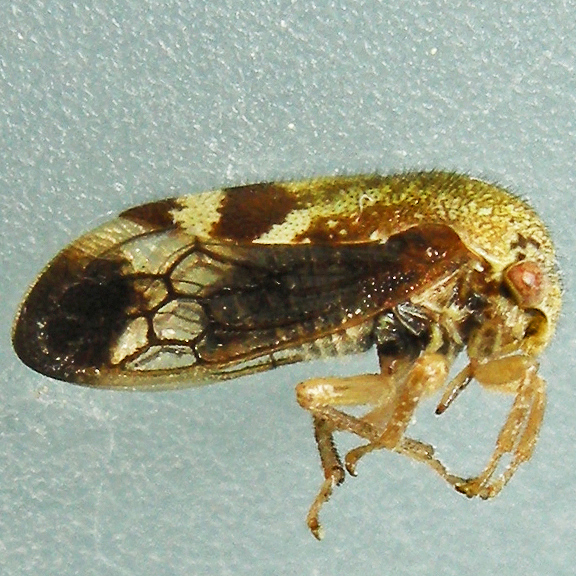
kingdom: Animalia
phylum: Arthropoda
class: Insecta
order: Hemiptera
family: Membracidae
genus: Ophiderma
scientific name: Ophiderma evelyna
